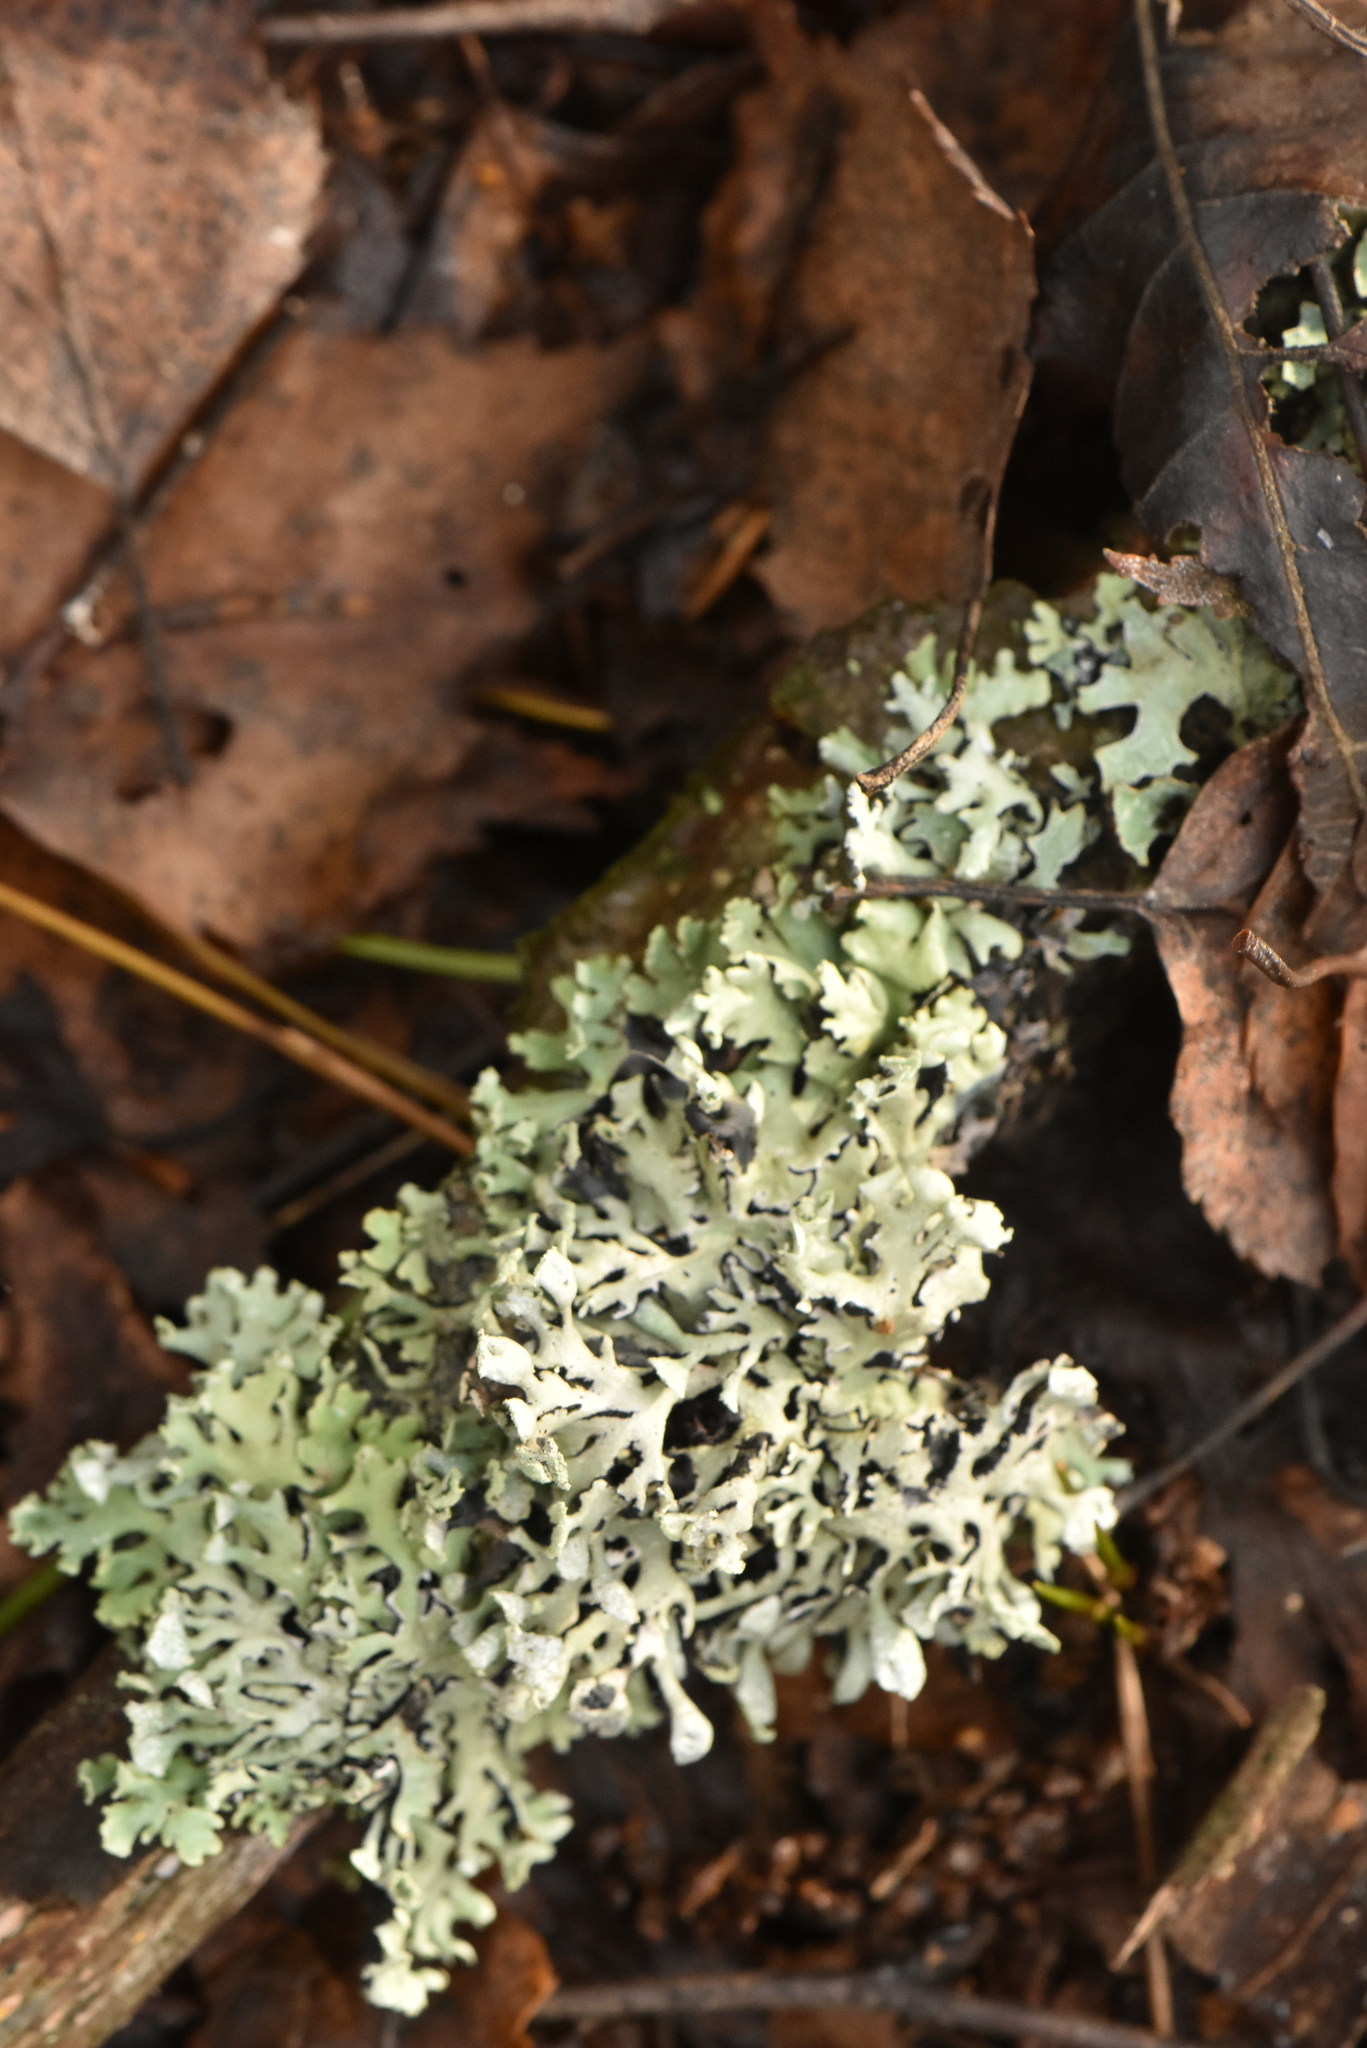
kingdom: Fungi
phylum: Ascomycota
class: Lecanoromycetes
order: Lecanorales
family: Parmeliaceae
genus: Hypogymnia
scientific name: Hypogymnia physodes
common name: Dark crottle
